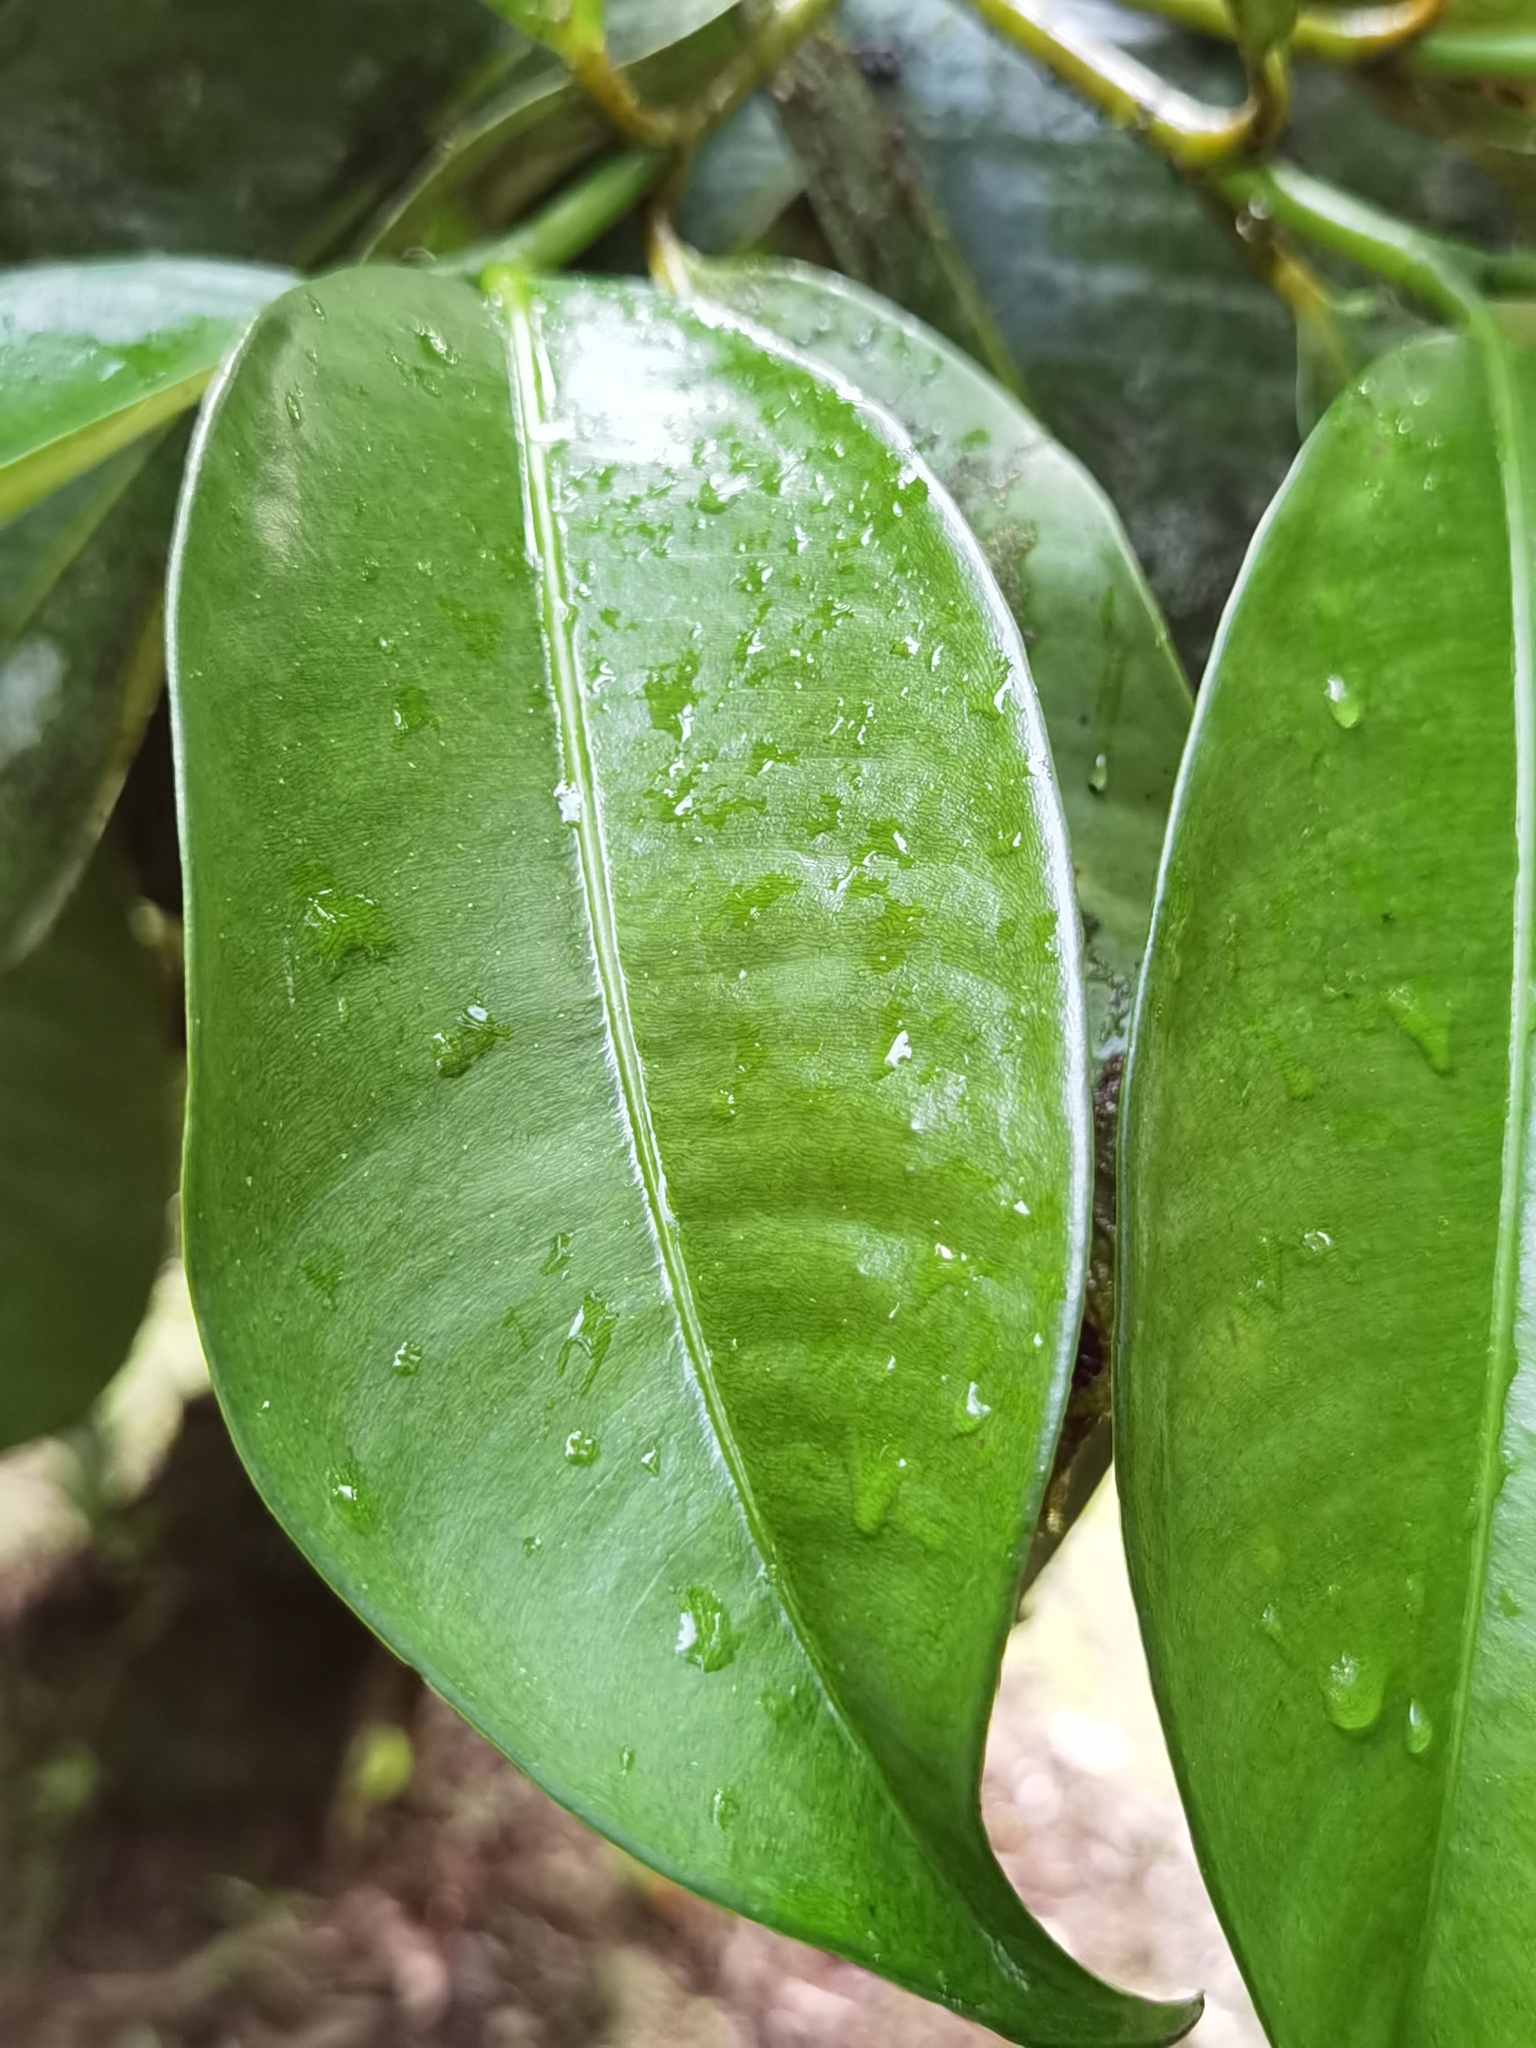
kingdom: Plantae
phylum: Tracheophyta
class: Magnoliopsida
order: Malpighiales
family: Clusiaceae
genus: Garcinia
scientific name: Garcinia mangostana
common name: Mangosteen
